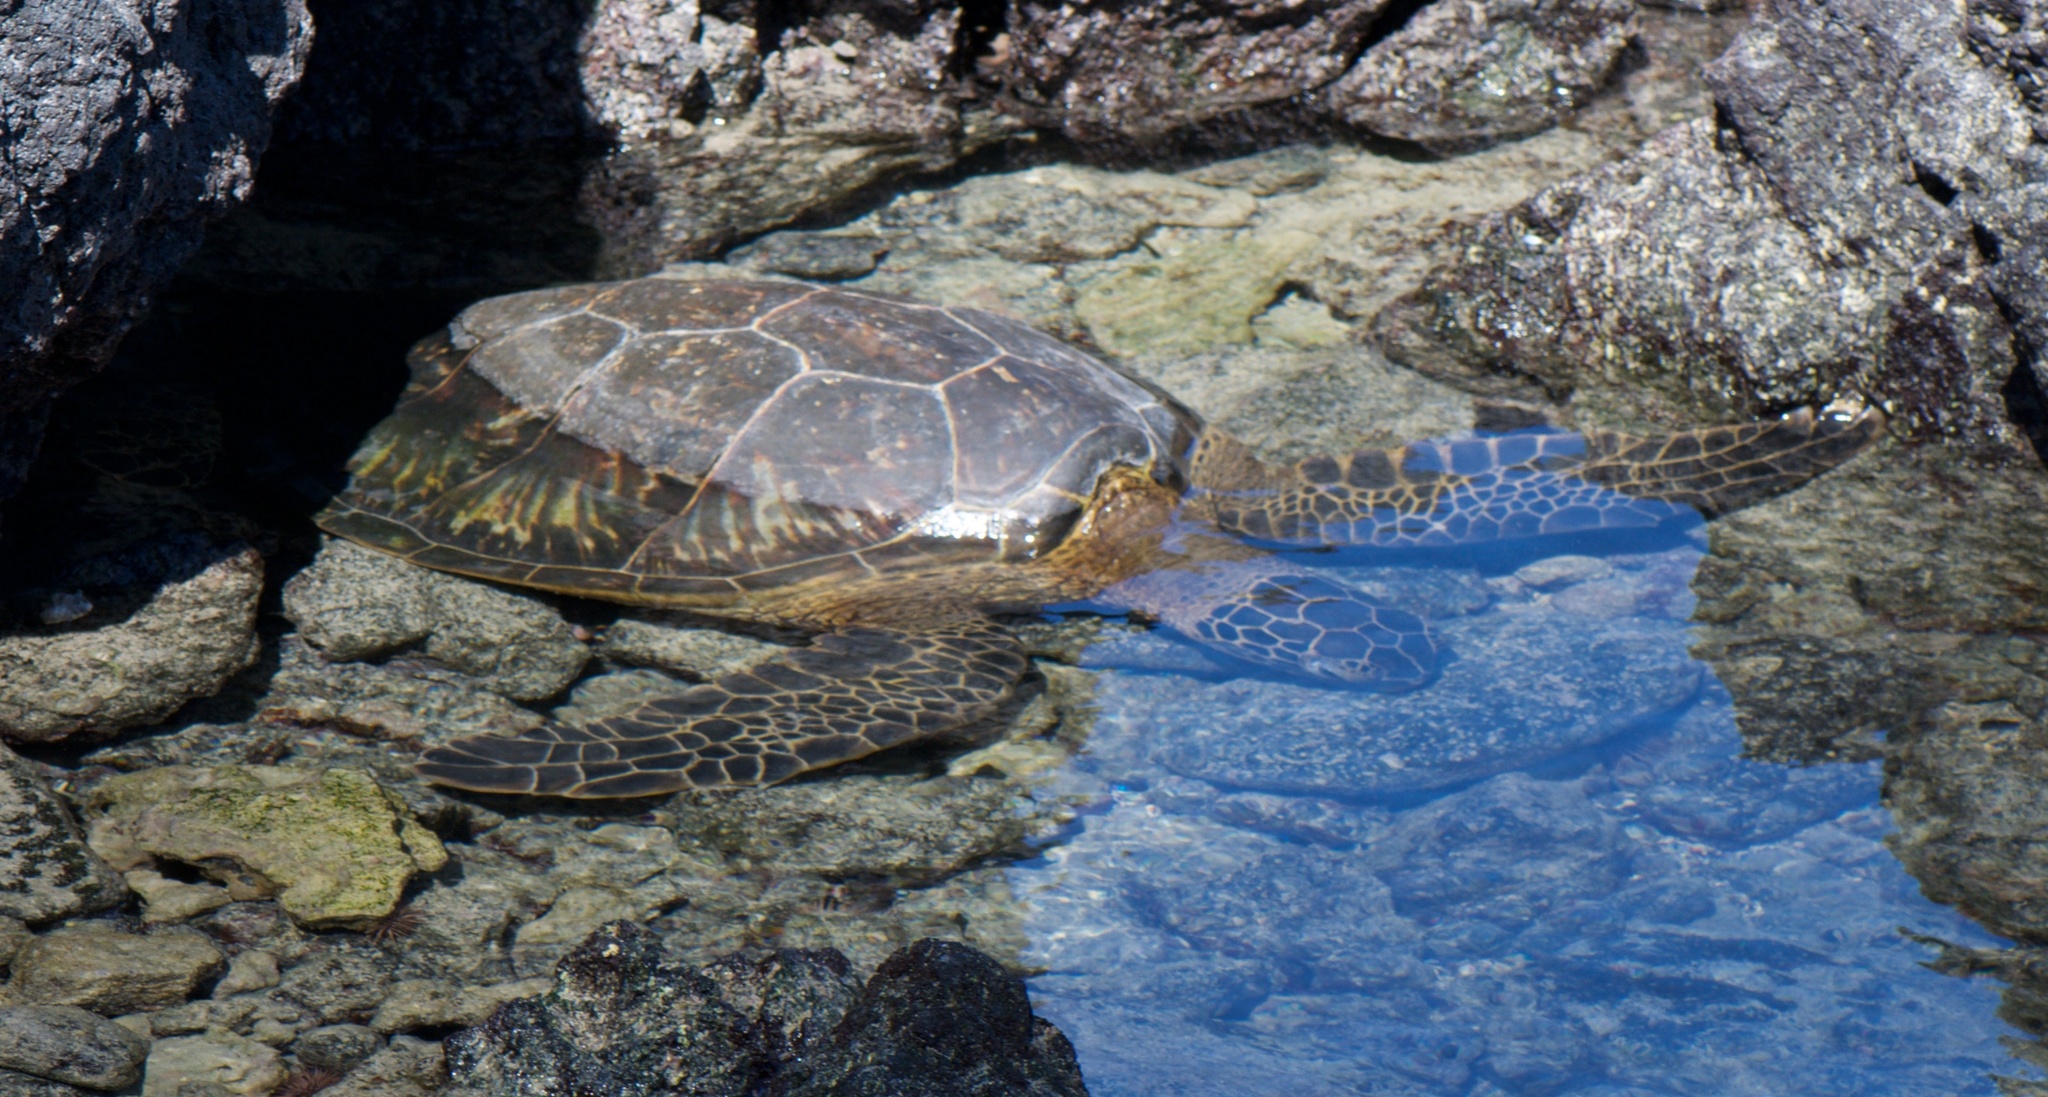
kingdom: Animalia
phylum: Chordata
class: Testudines
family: Cheloniidae
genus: Chelonia
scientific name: Chelonia mydas
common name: Green turtle
